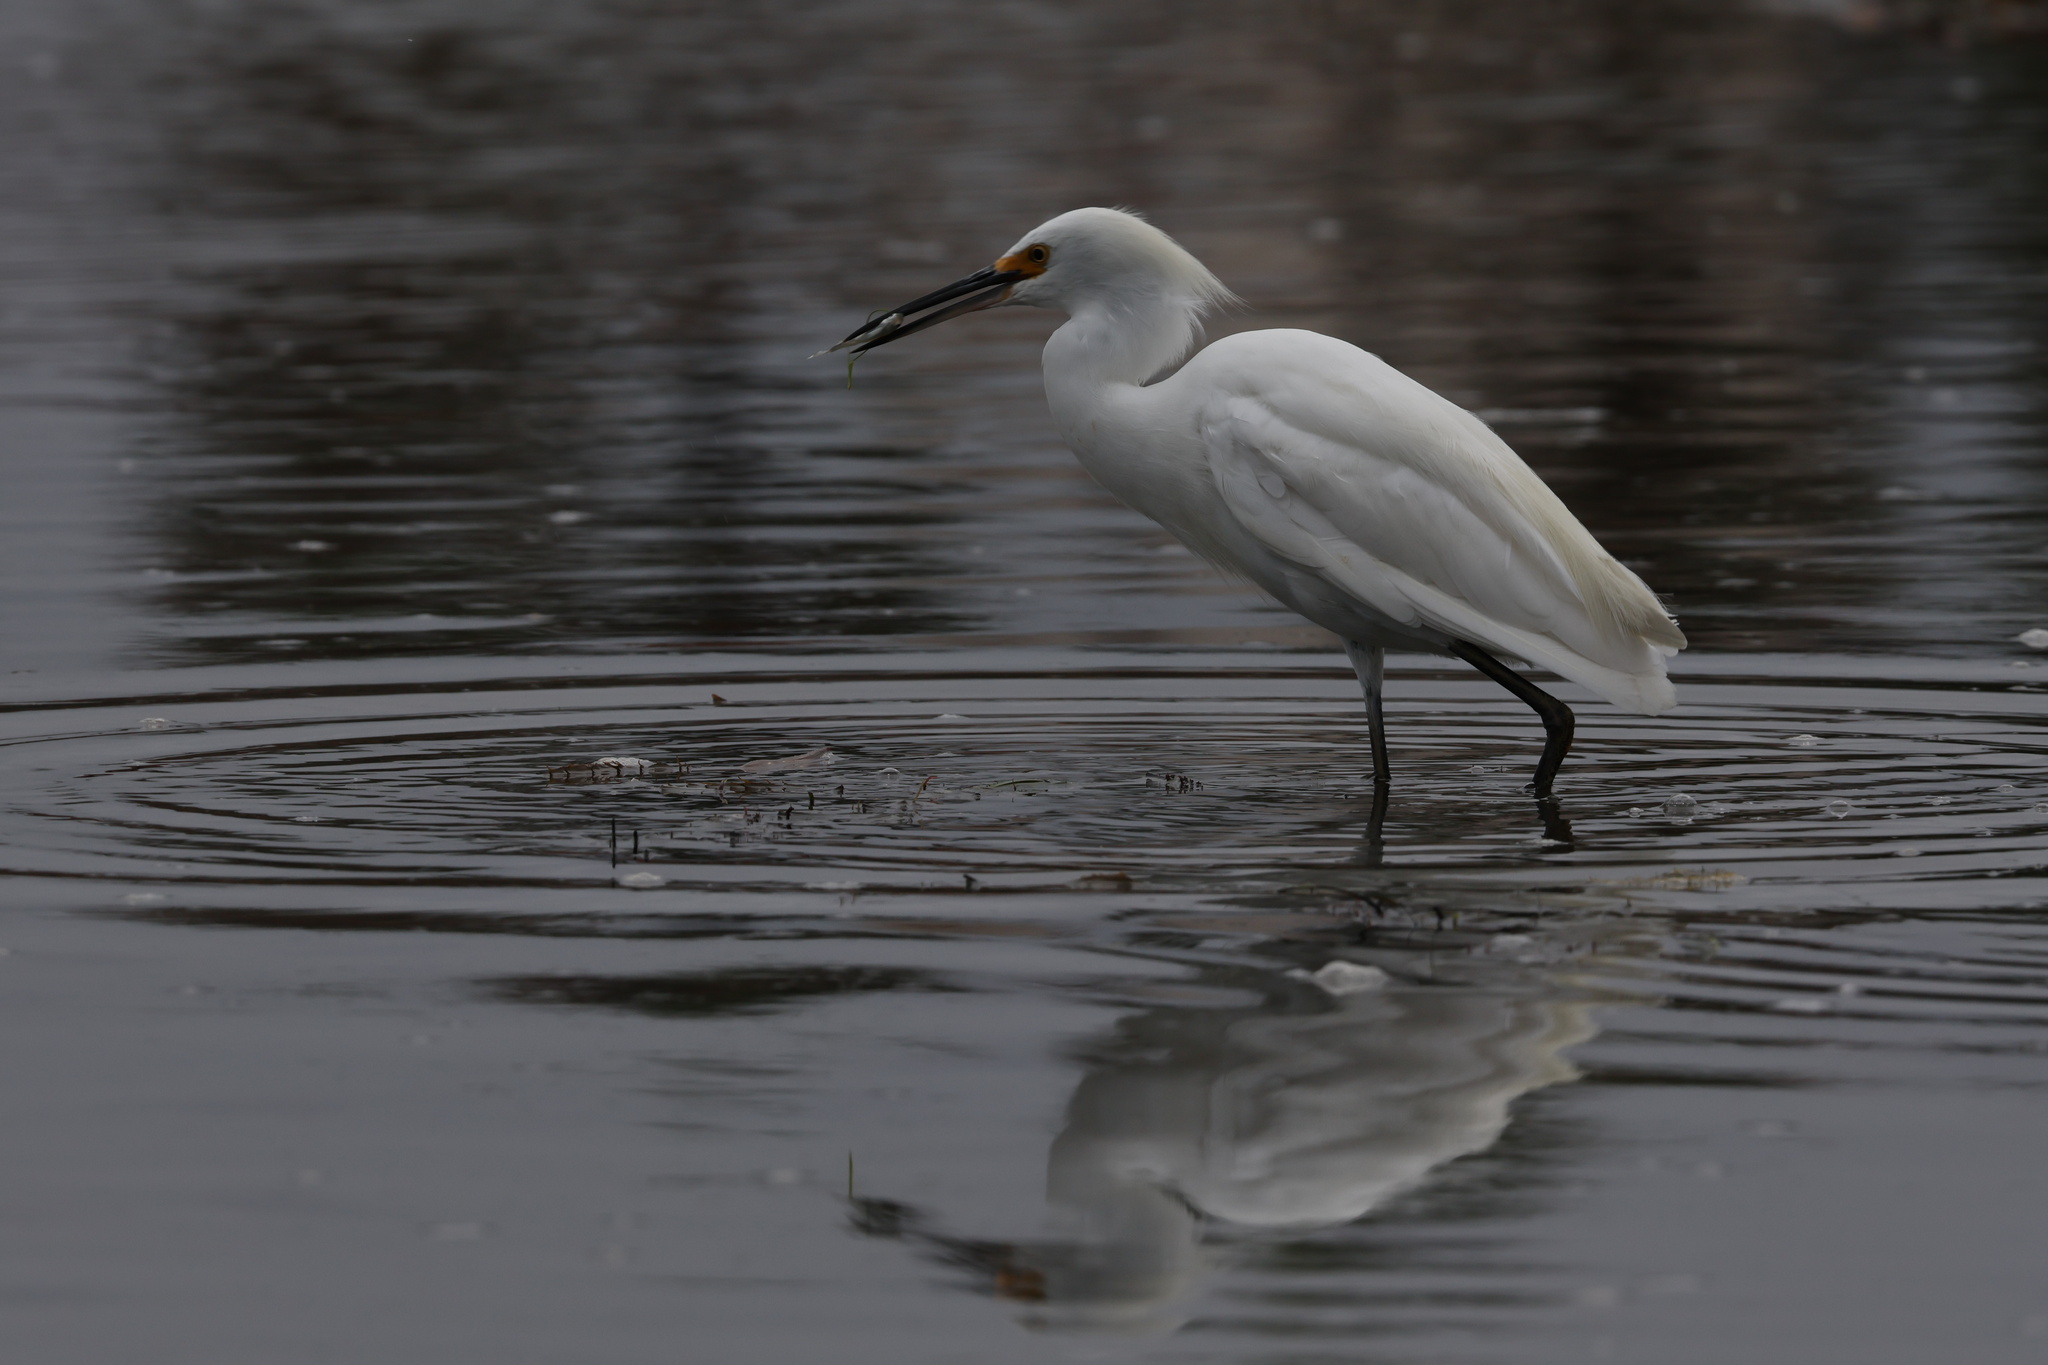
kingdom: Animalia
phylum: Chordata
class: Aves
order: Pelecaniformes
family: Ardeidae
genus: Egretta
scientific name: Egretta thula
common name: Snowy egret
